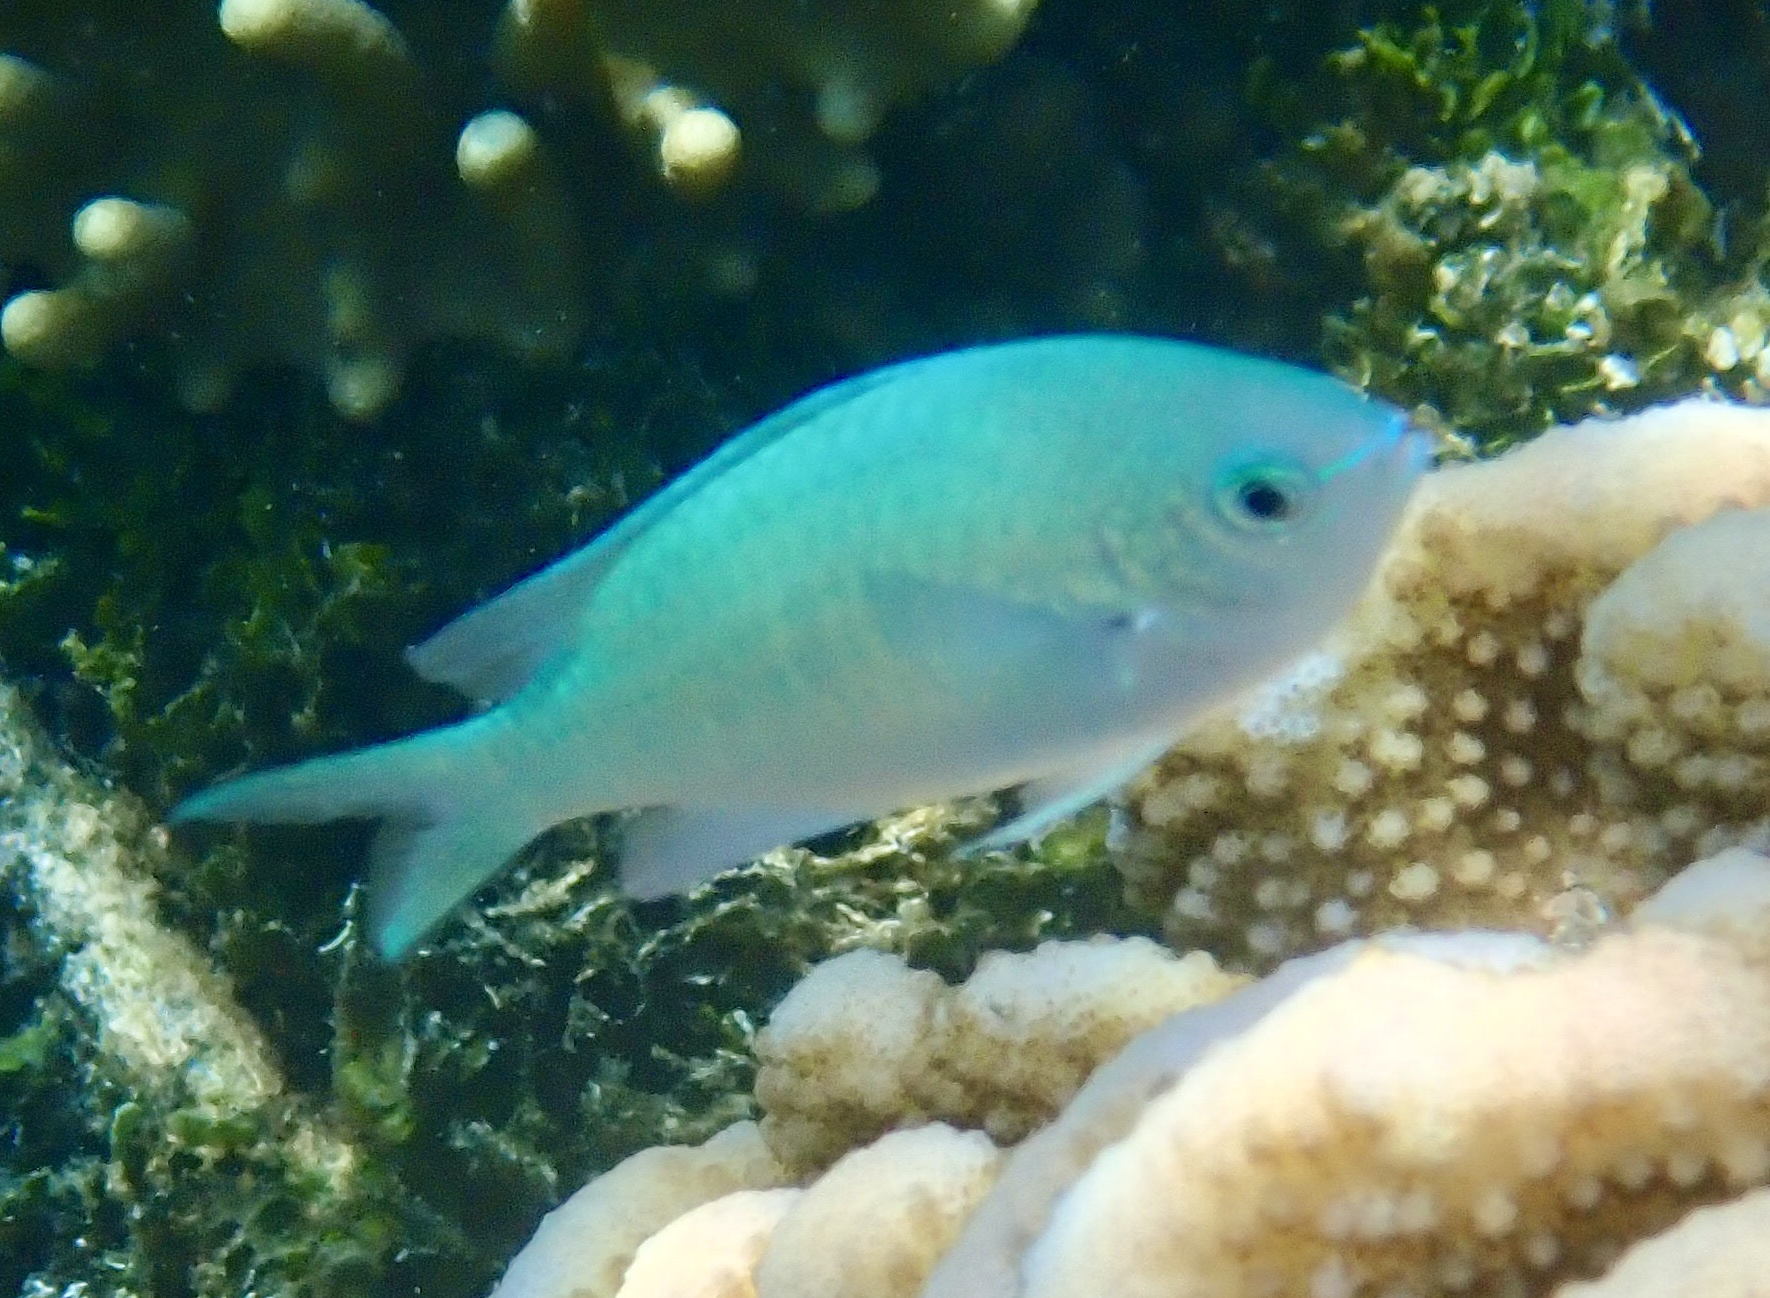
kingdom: Animalia
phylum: Chordata
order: Perciformes
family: Pomacentridae
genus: Chromis
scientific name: Chromis viridis
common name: Blue-green chromis
